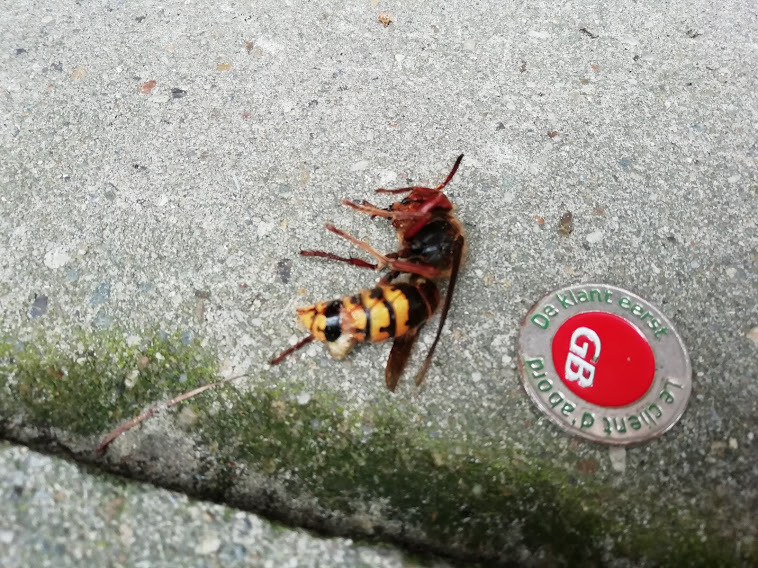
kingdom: Animalia
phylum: Arthropoda
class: Insecta
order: Hymenoptera
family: Vespidae
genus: Vespa
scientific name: Vespa crabro
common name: Hornet
